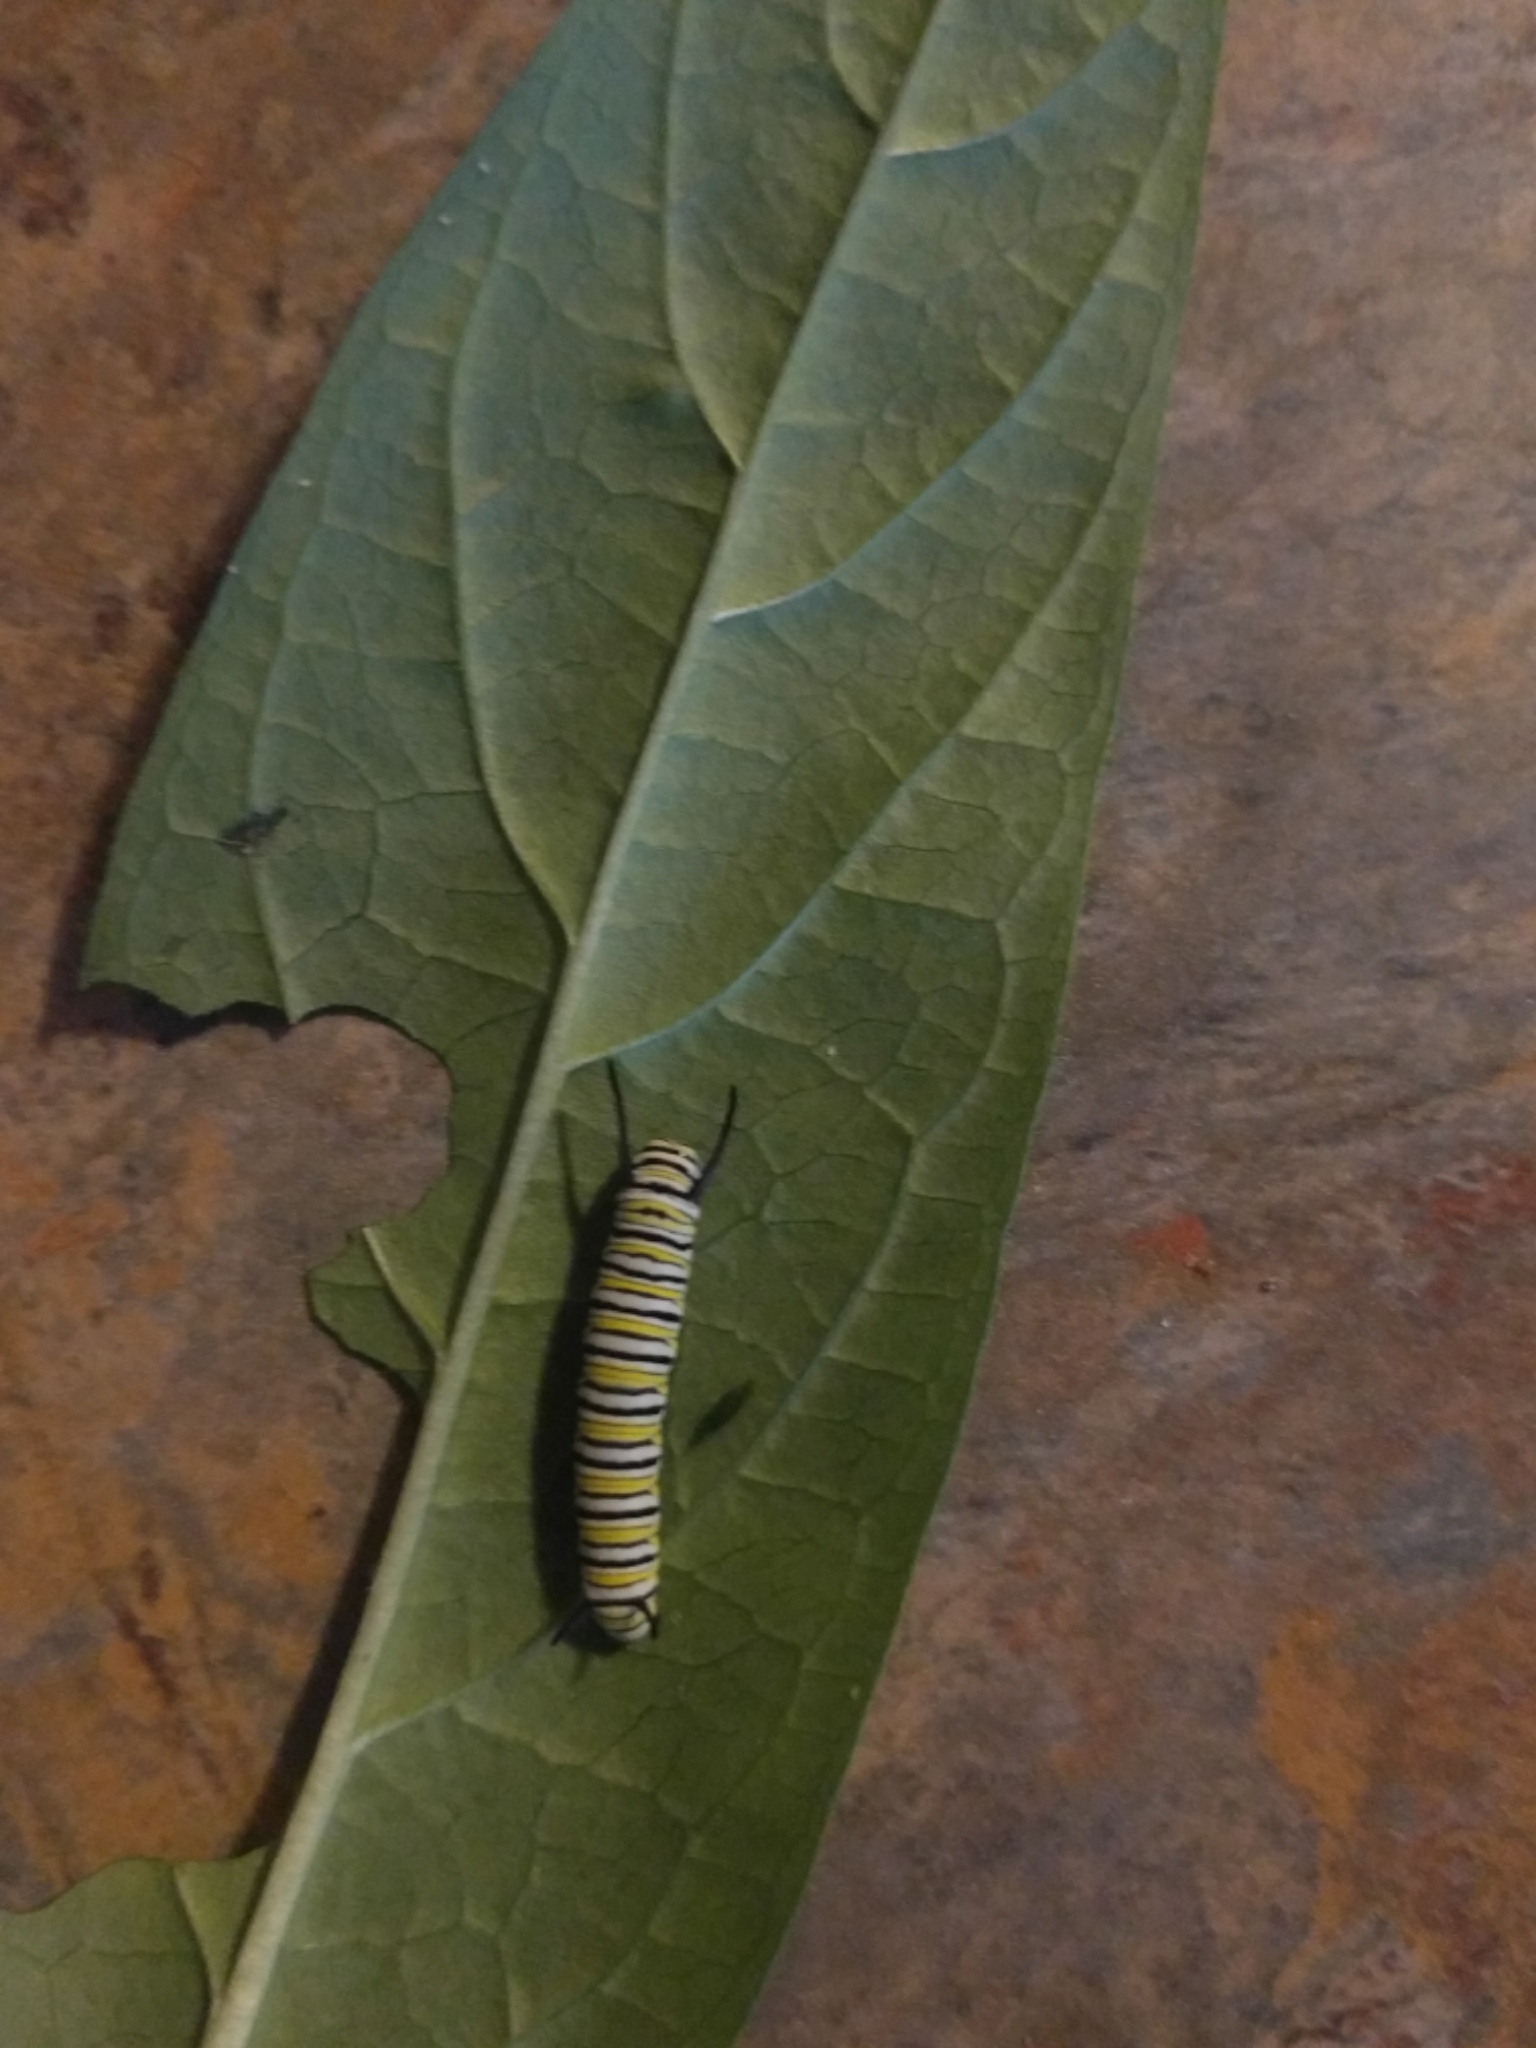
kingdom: Animalia
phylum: Arthropoda
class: Insecta
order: Lepidoptera
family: Nymphalidae
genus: Danaus
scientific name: Danaus plexippus
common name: Monarch
